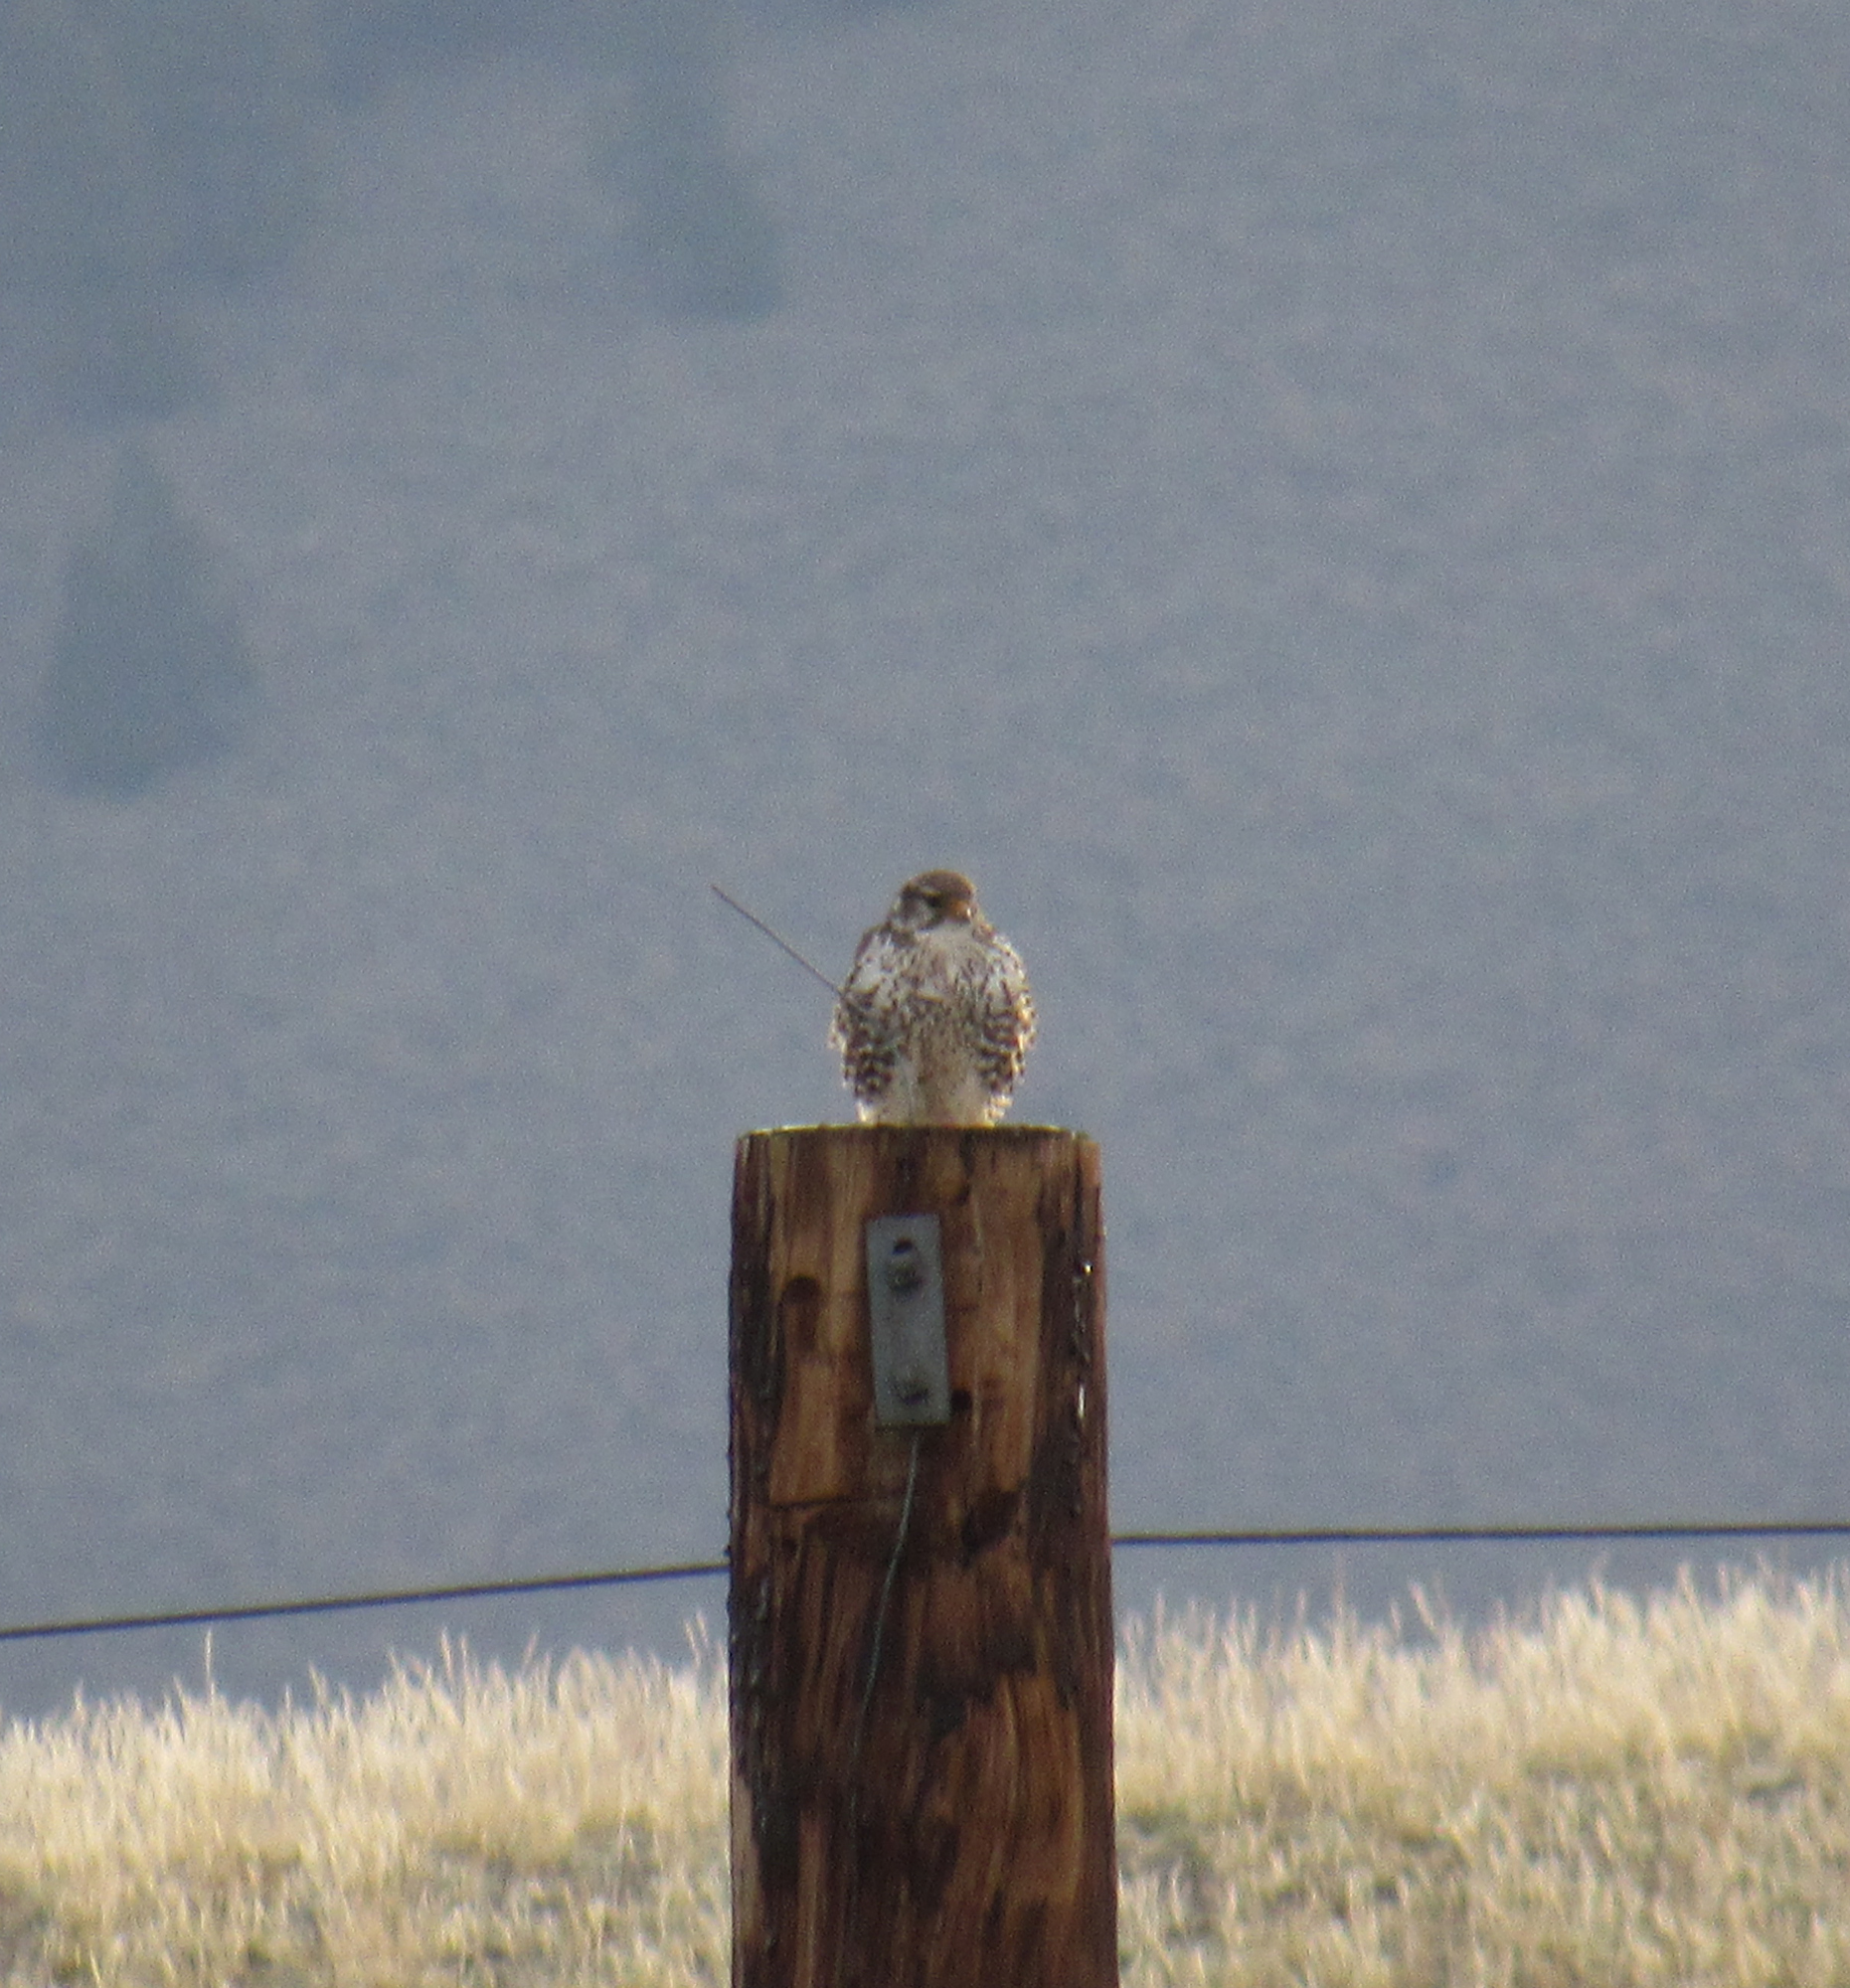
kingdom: Animalia
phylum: Chordata
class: Aves
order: Falconiformes
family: Falconidae
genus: Falco
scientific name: Falco mexicanus
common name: Prairie falcon
